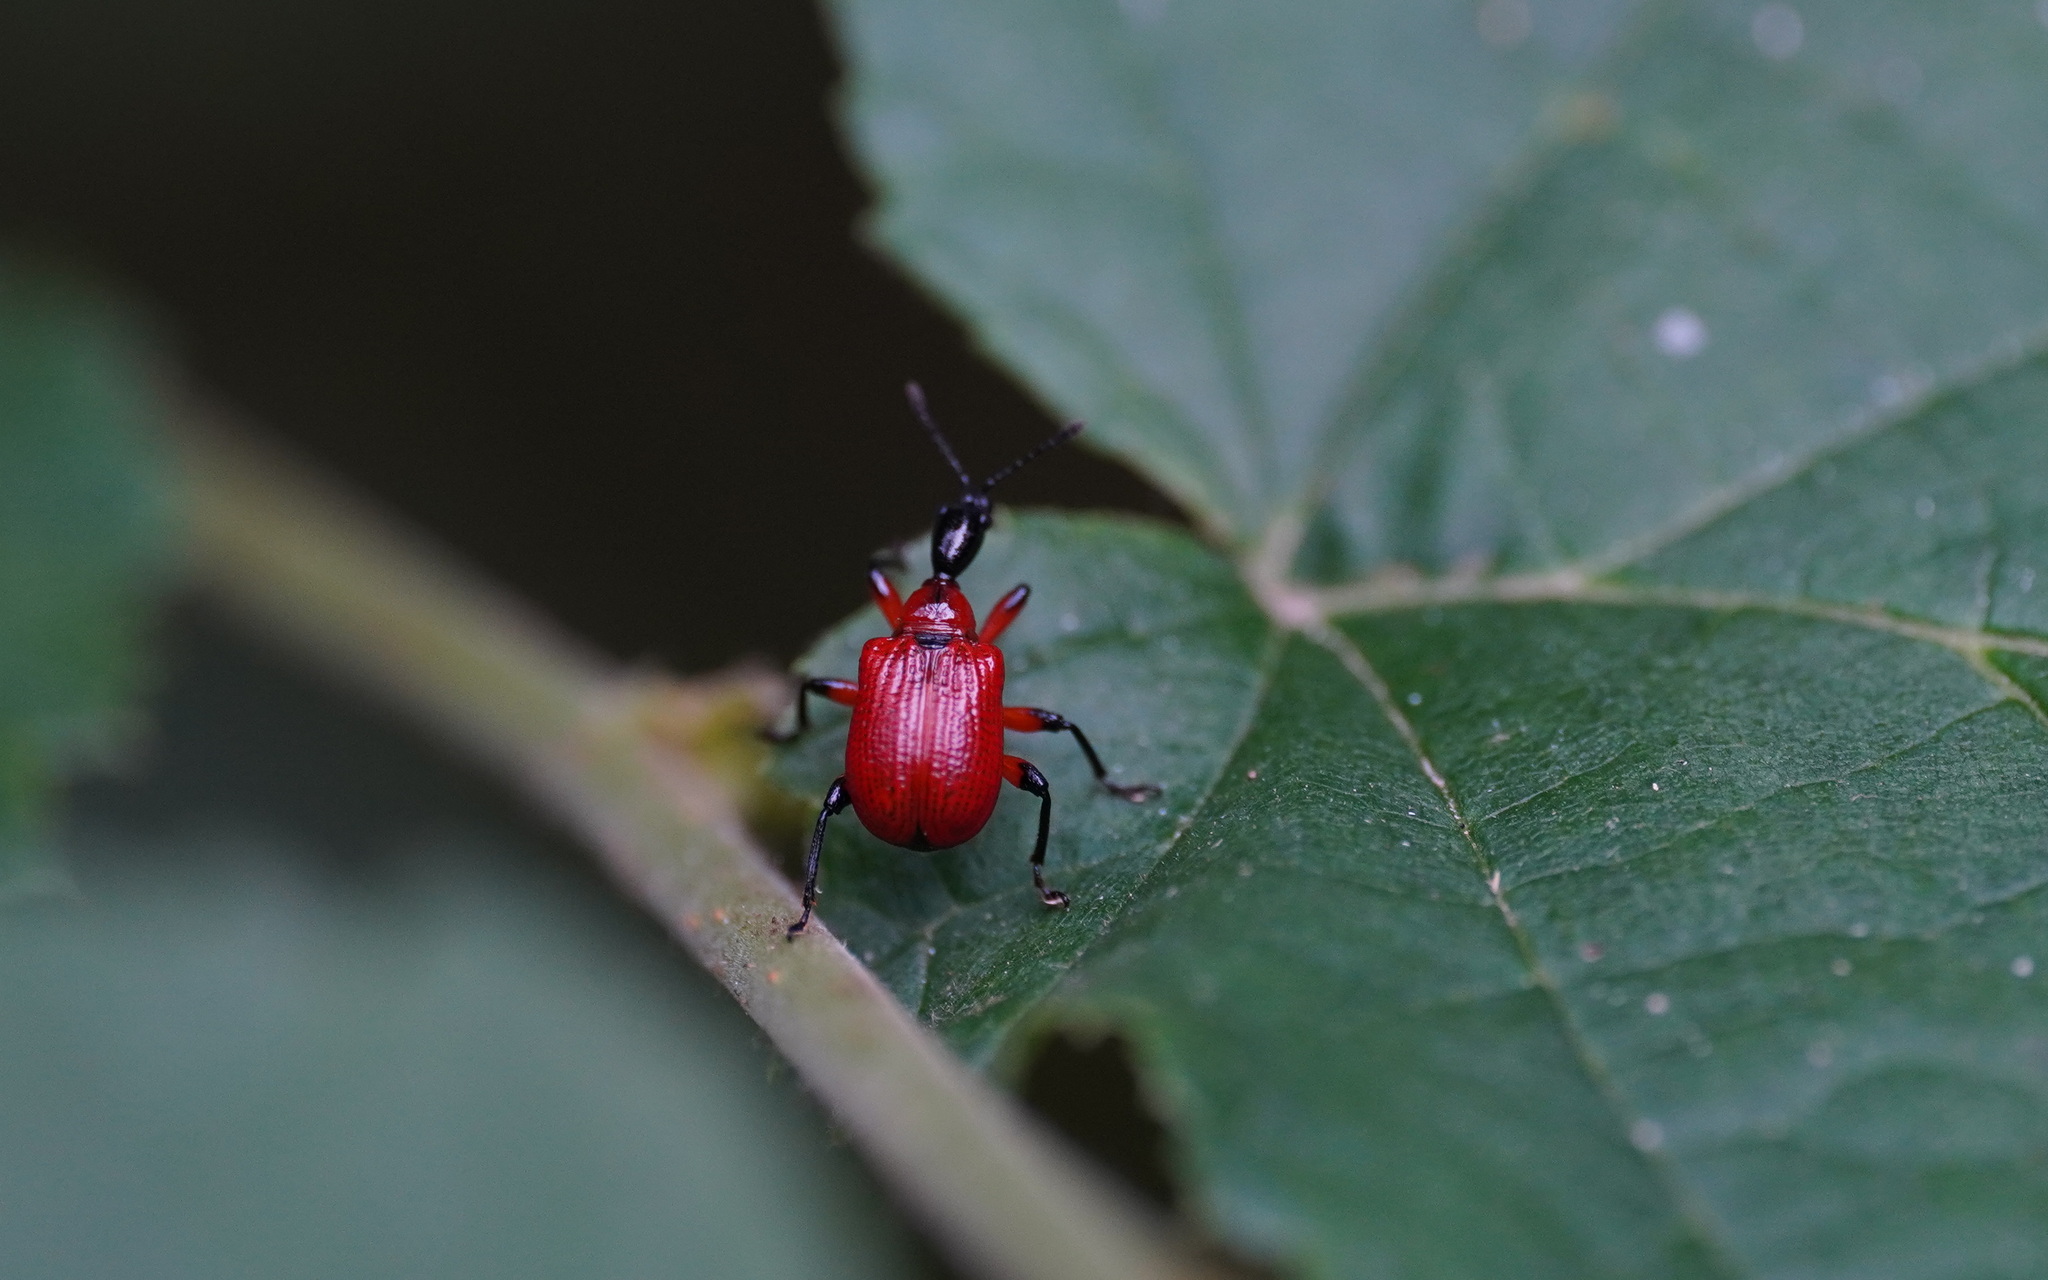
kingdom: Animalia
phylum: Arthropoda
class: Insecta
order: Coleoptera
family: Attelabidae
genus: Apoderus
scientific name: Apoderus coryli
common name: Hazel leaf roller
